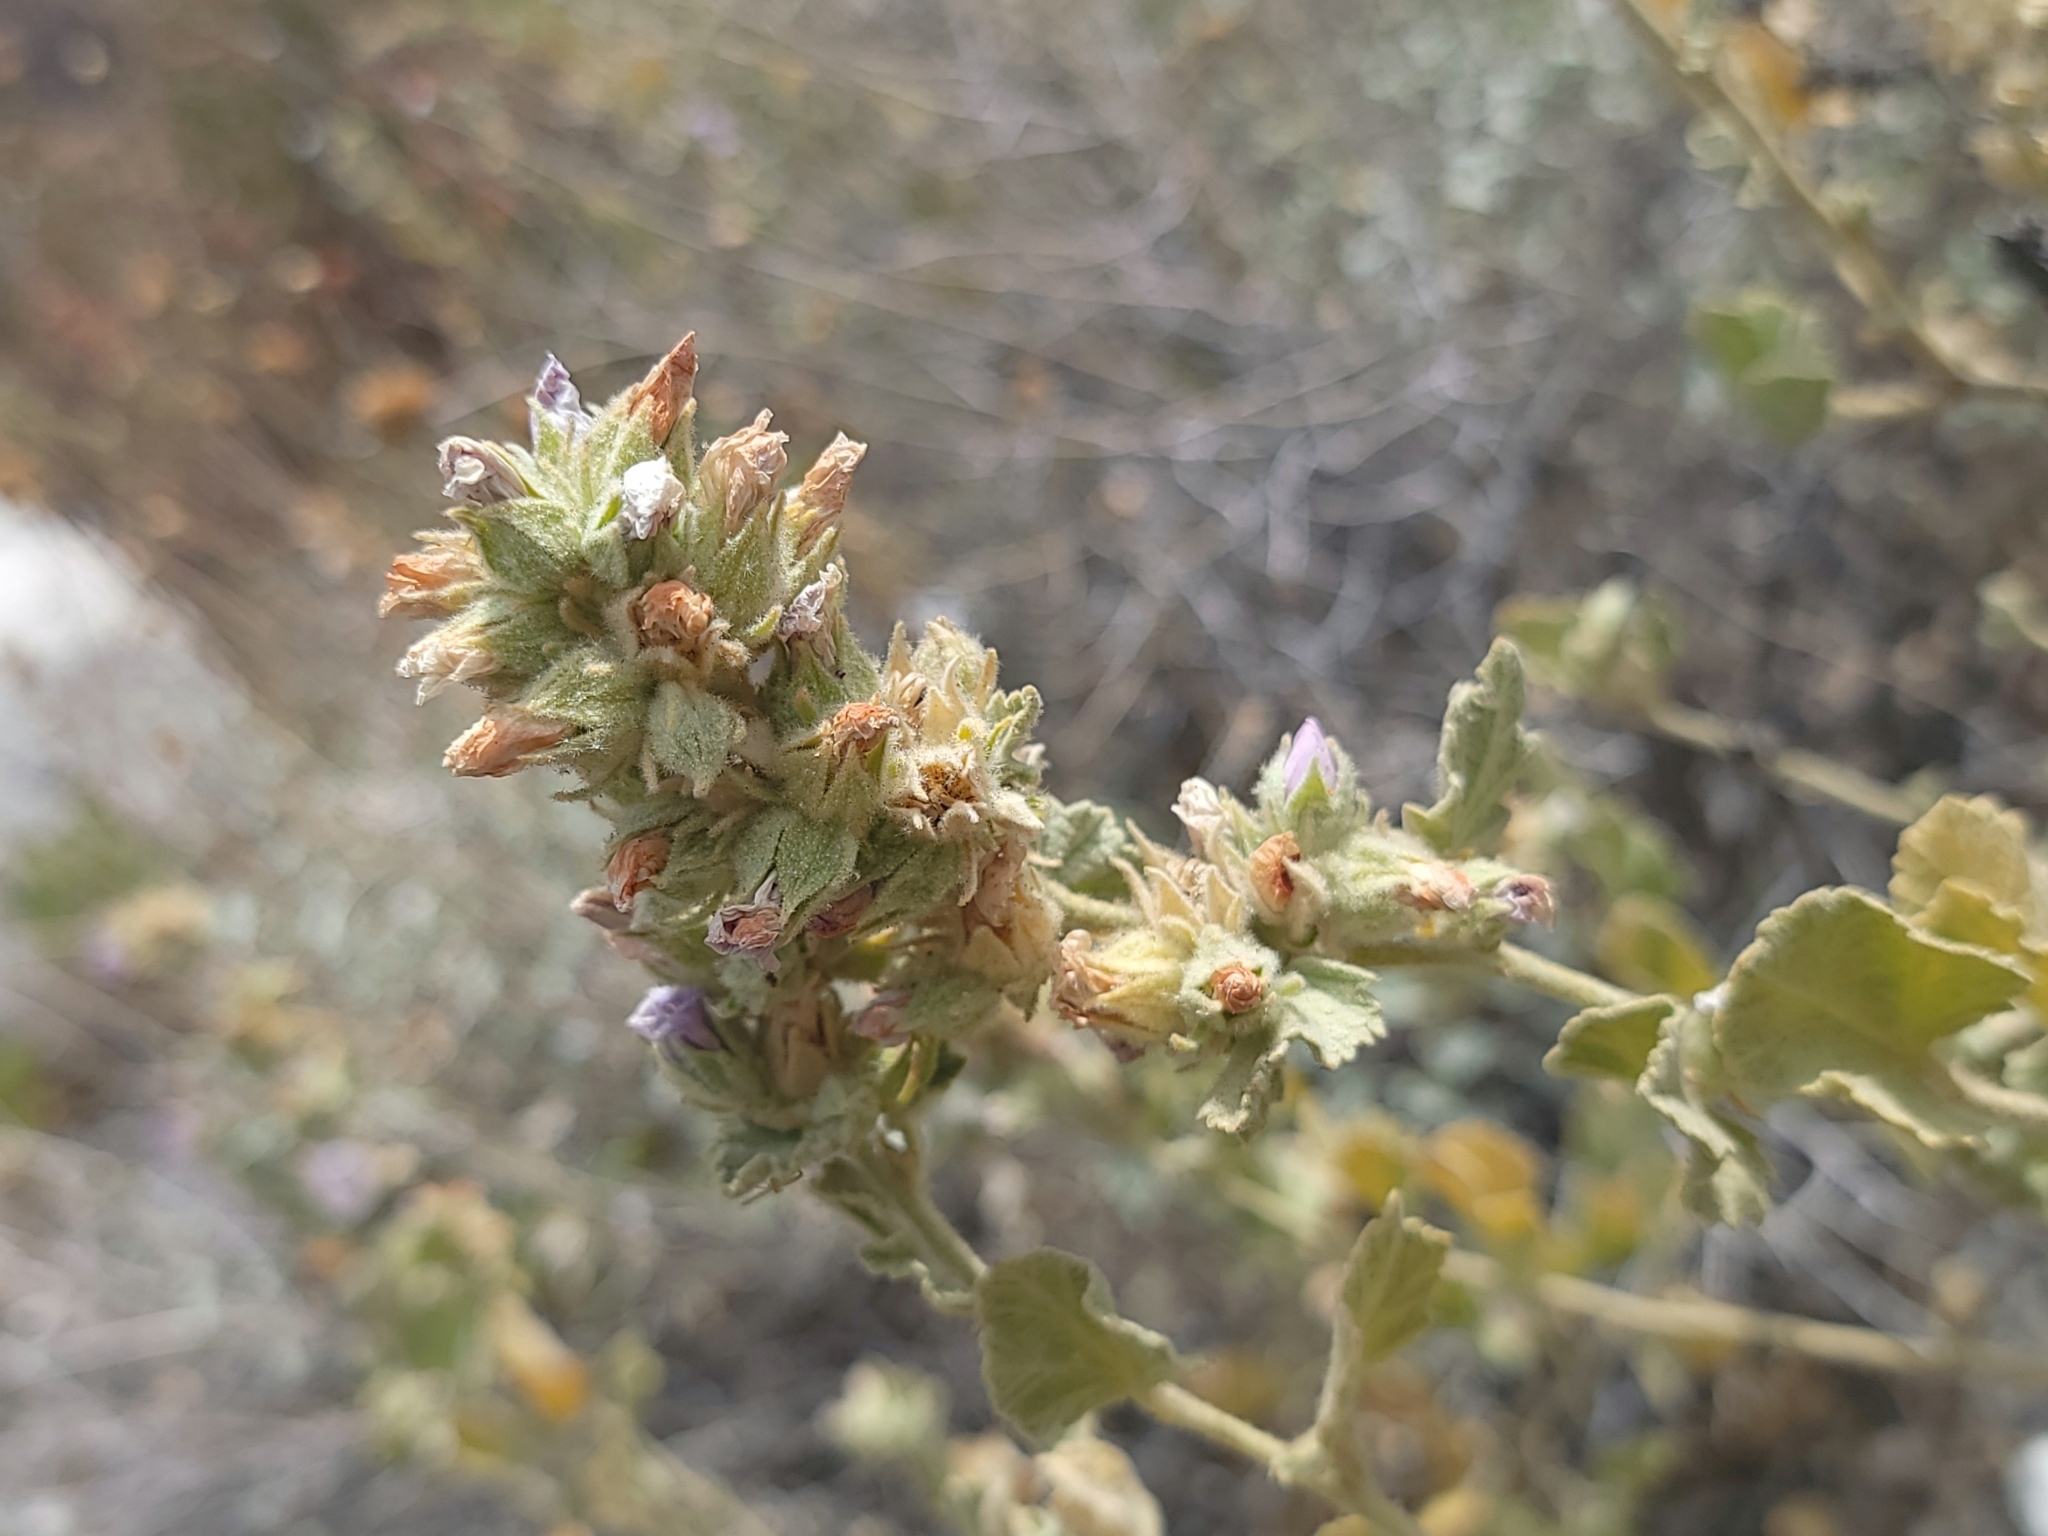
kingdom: Plantae
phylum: Tracheophyta
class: Magnoliopsida
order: Malvales
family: Malvaceae
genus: Malacothamnus
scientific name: Malacothamnus marrubioides
